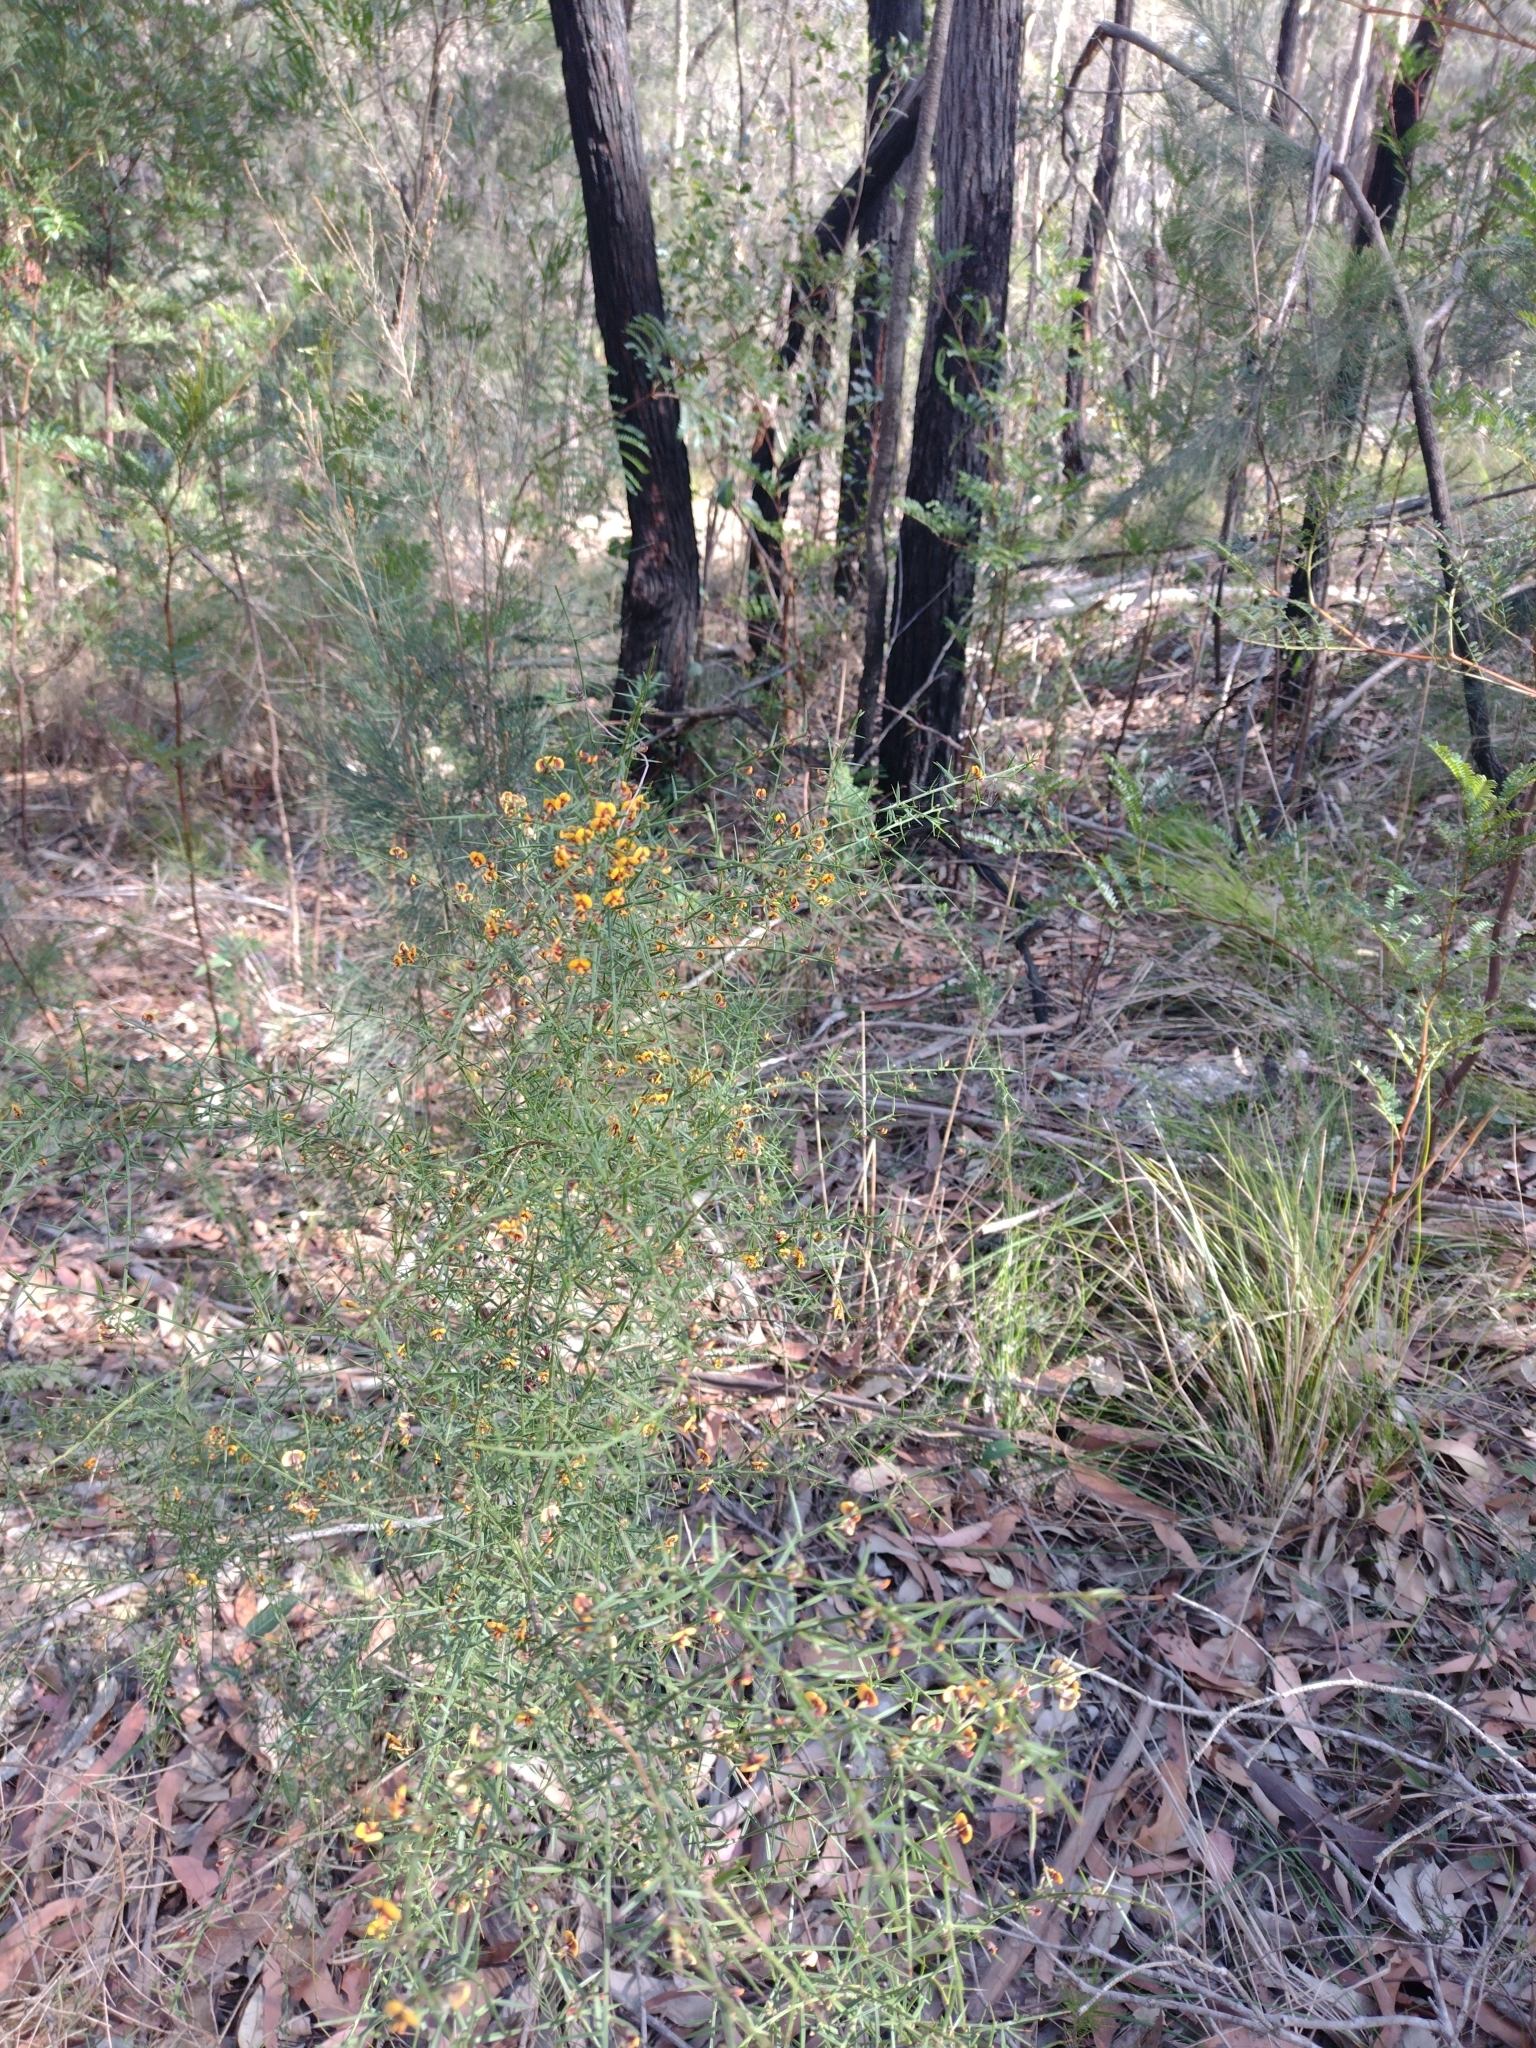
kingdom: Plantae
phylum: Tracheophyta
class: Magnoliopsida
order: Fabales
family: Fabaceae
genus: Daviesia
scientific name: Daviesia ulicifolia
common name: Gorse bitter-pea
